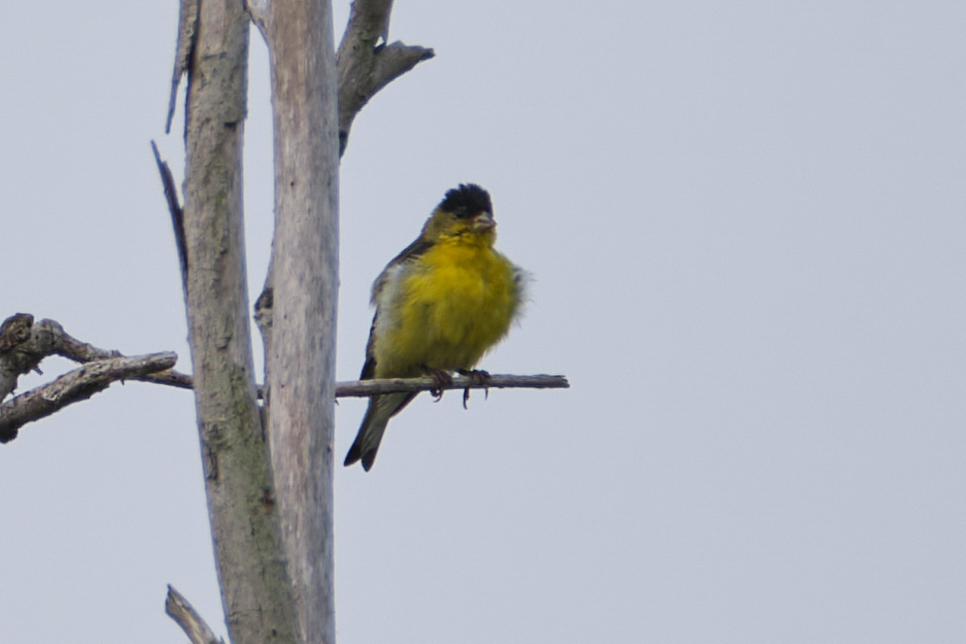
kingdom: Animalia
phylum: Chordata
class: Aves
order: Passeriformes
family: Fringillidae
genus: Spinus
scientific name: Spinus psaltria
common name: Lesser goldfinch
